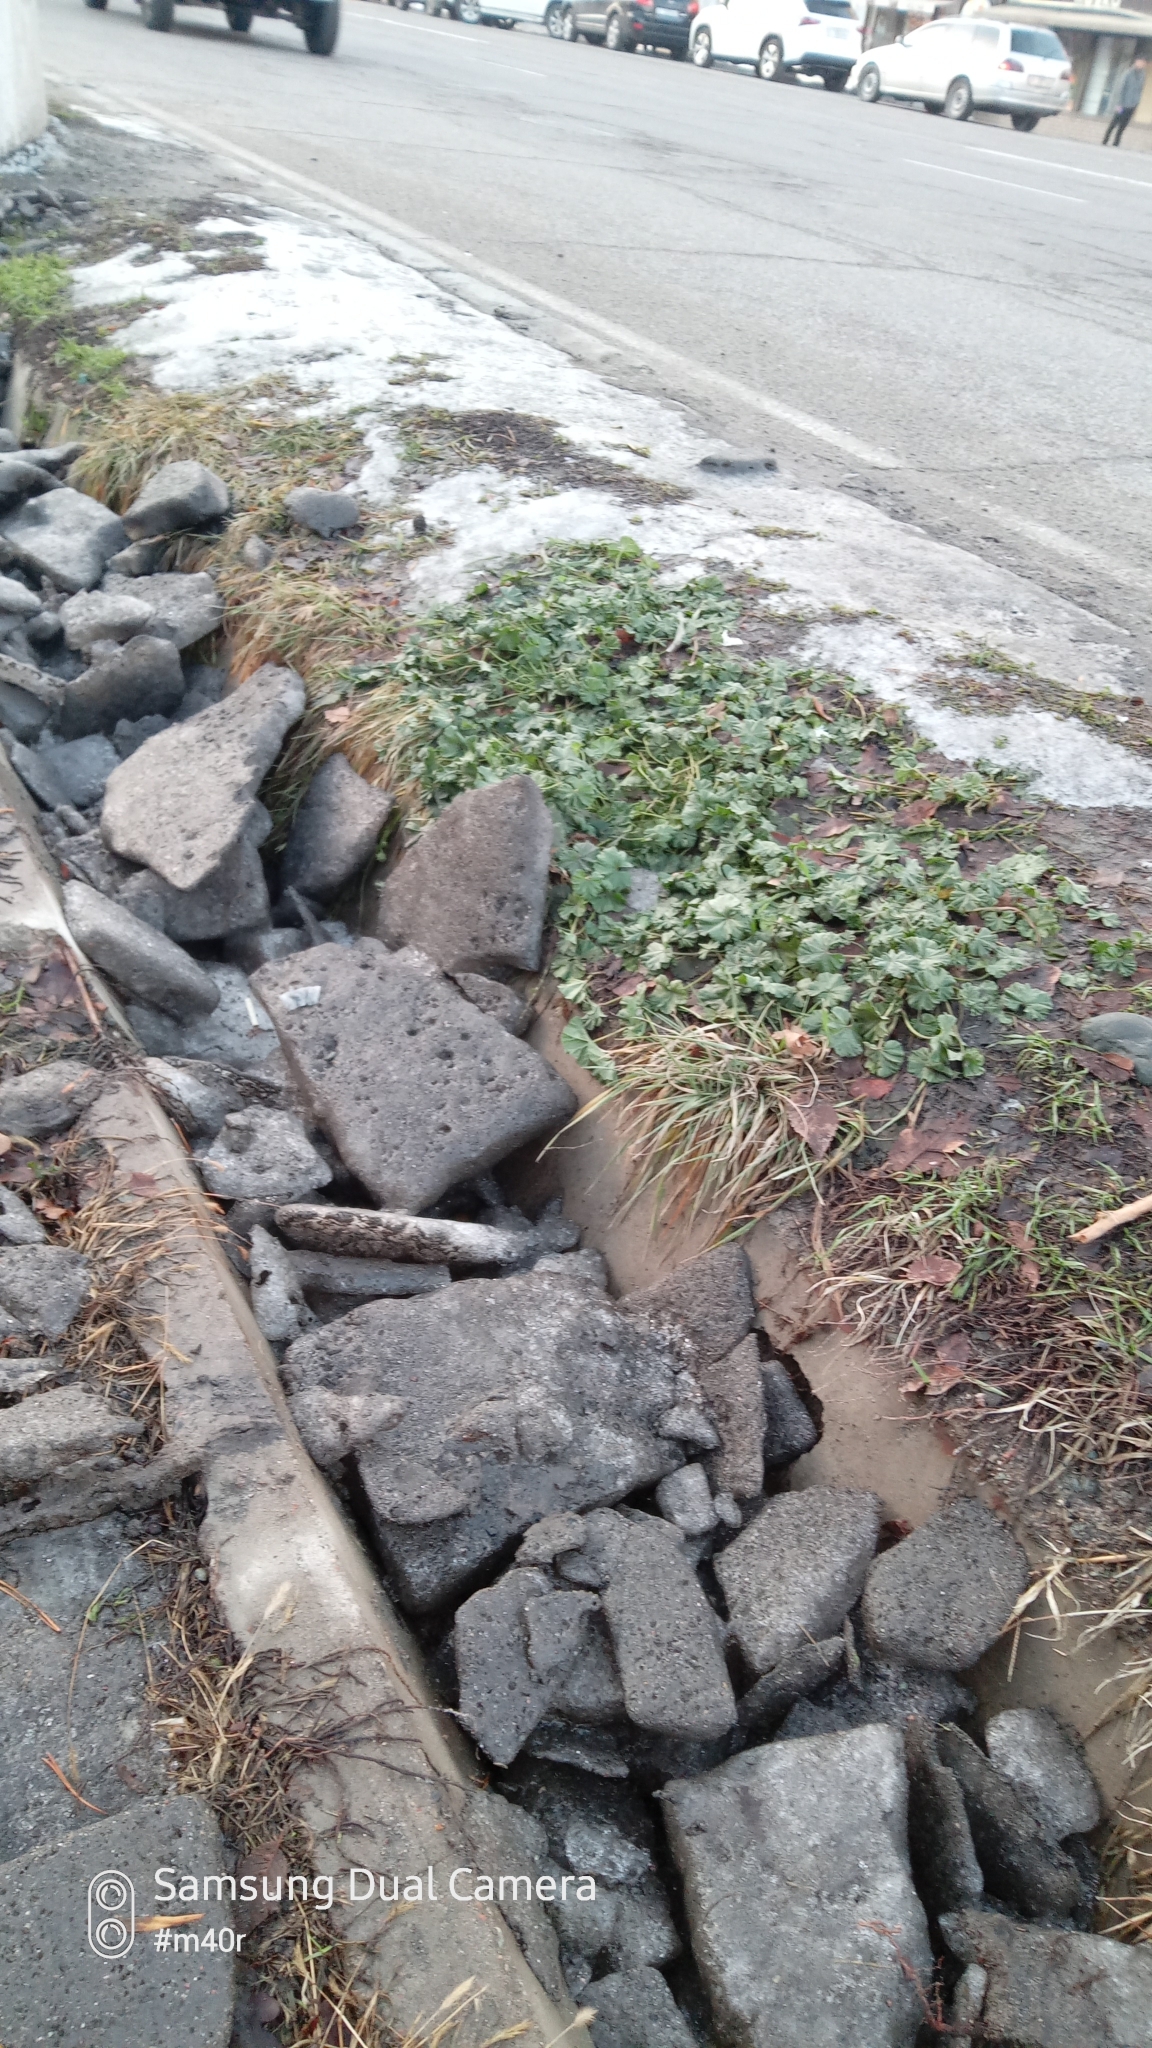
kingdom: Plantae
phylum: Tracheophyta
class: Magnoliopsida
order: Malvales
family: Malvaceae
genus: Malva
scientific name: Malva neglecta
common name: Common mallow
